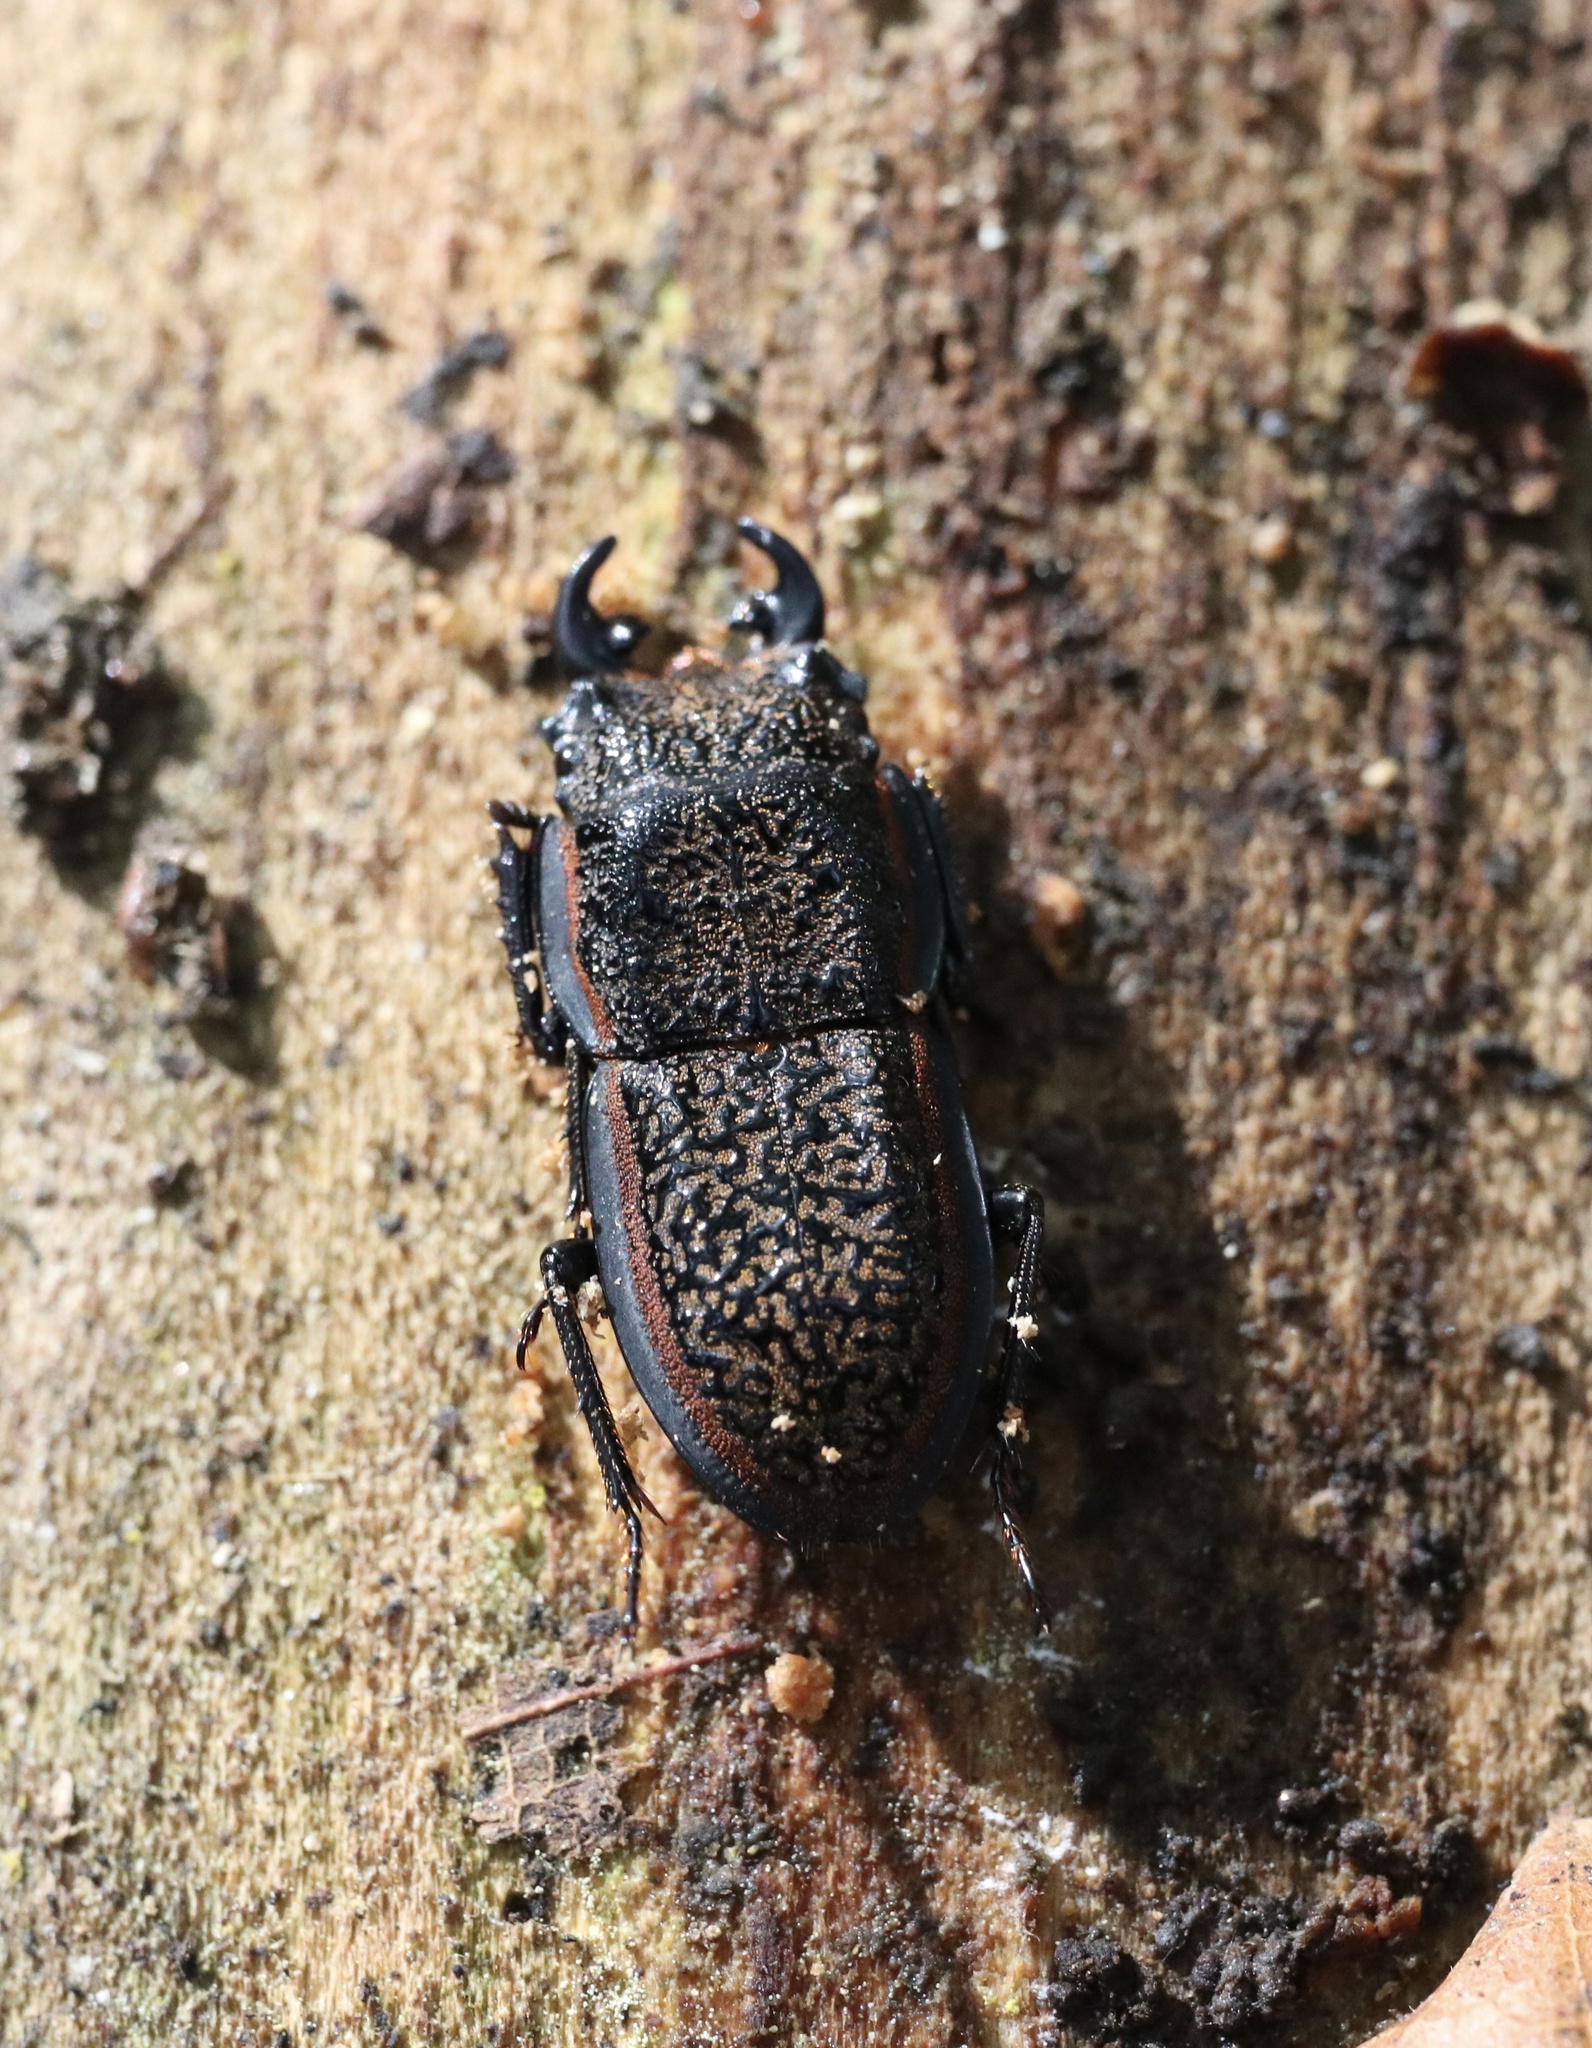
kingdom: Animalia
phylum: Arthropoda
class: Insecta
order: Coleoptera
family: Lucanidae
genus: Erichius
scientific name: Erichius caelatus
